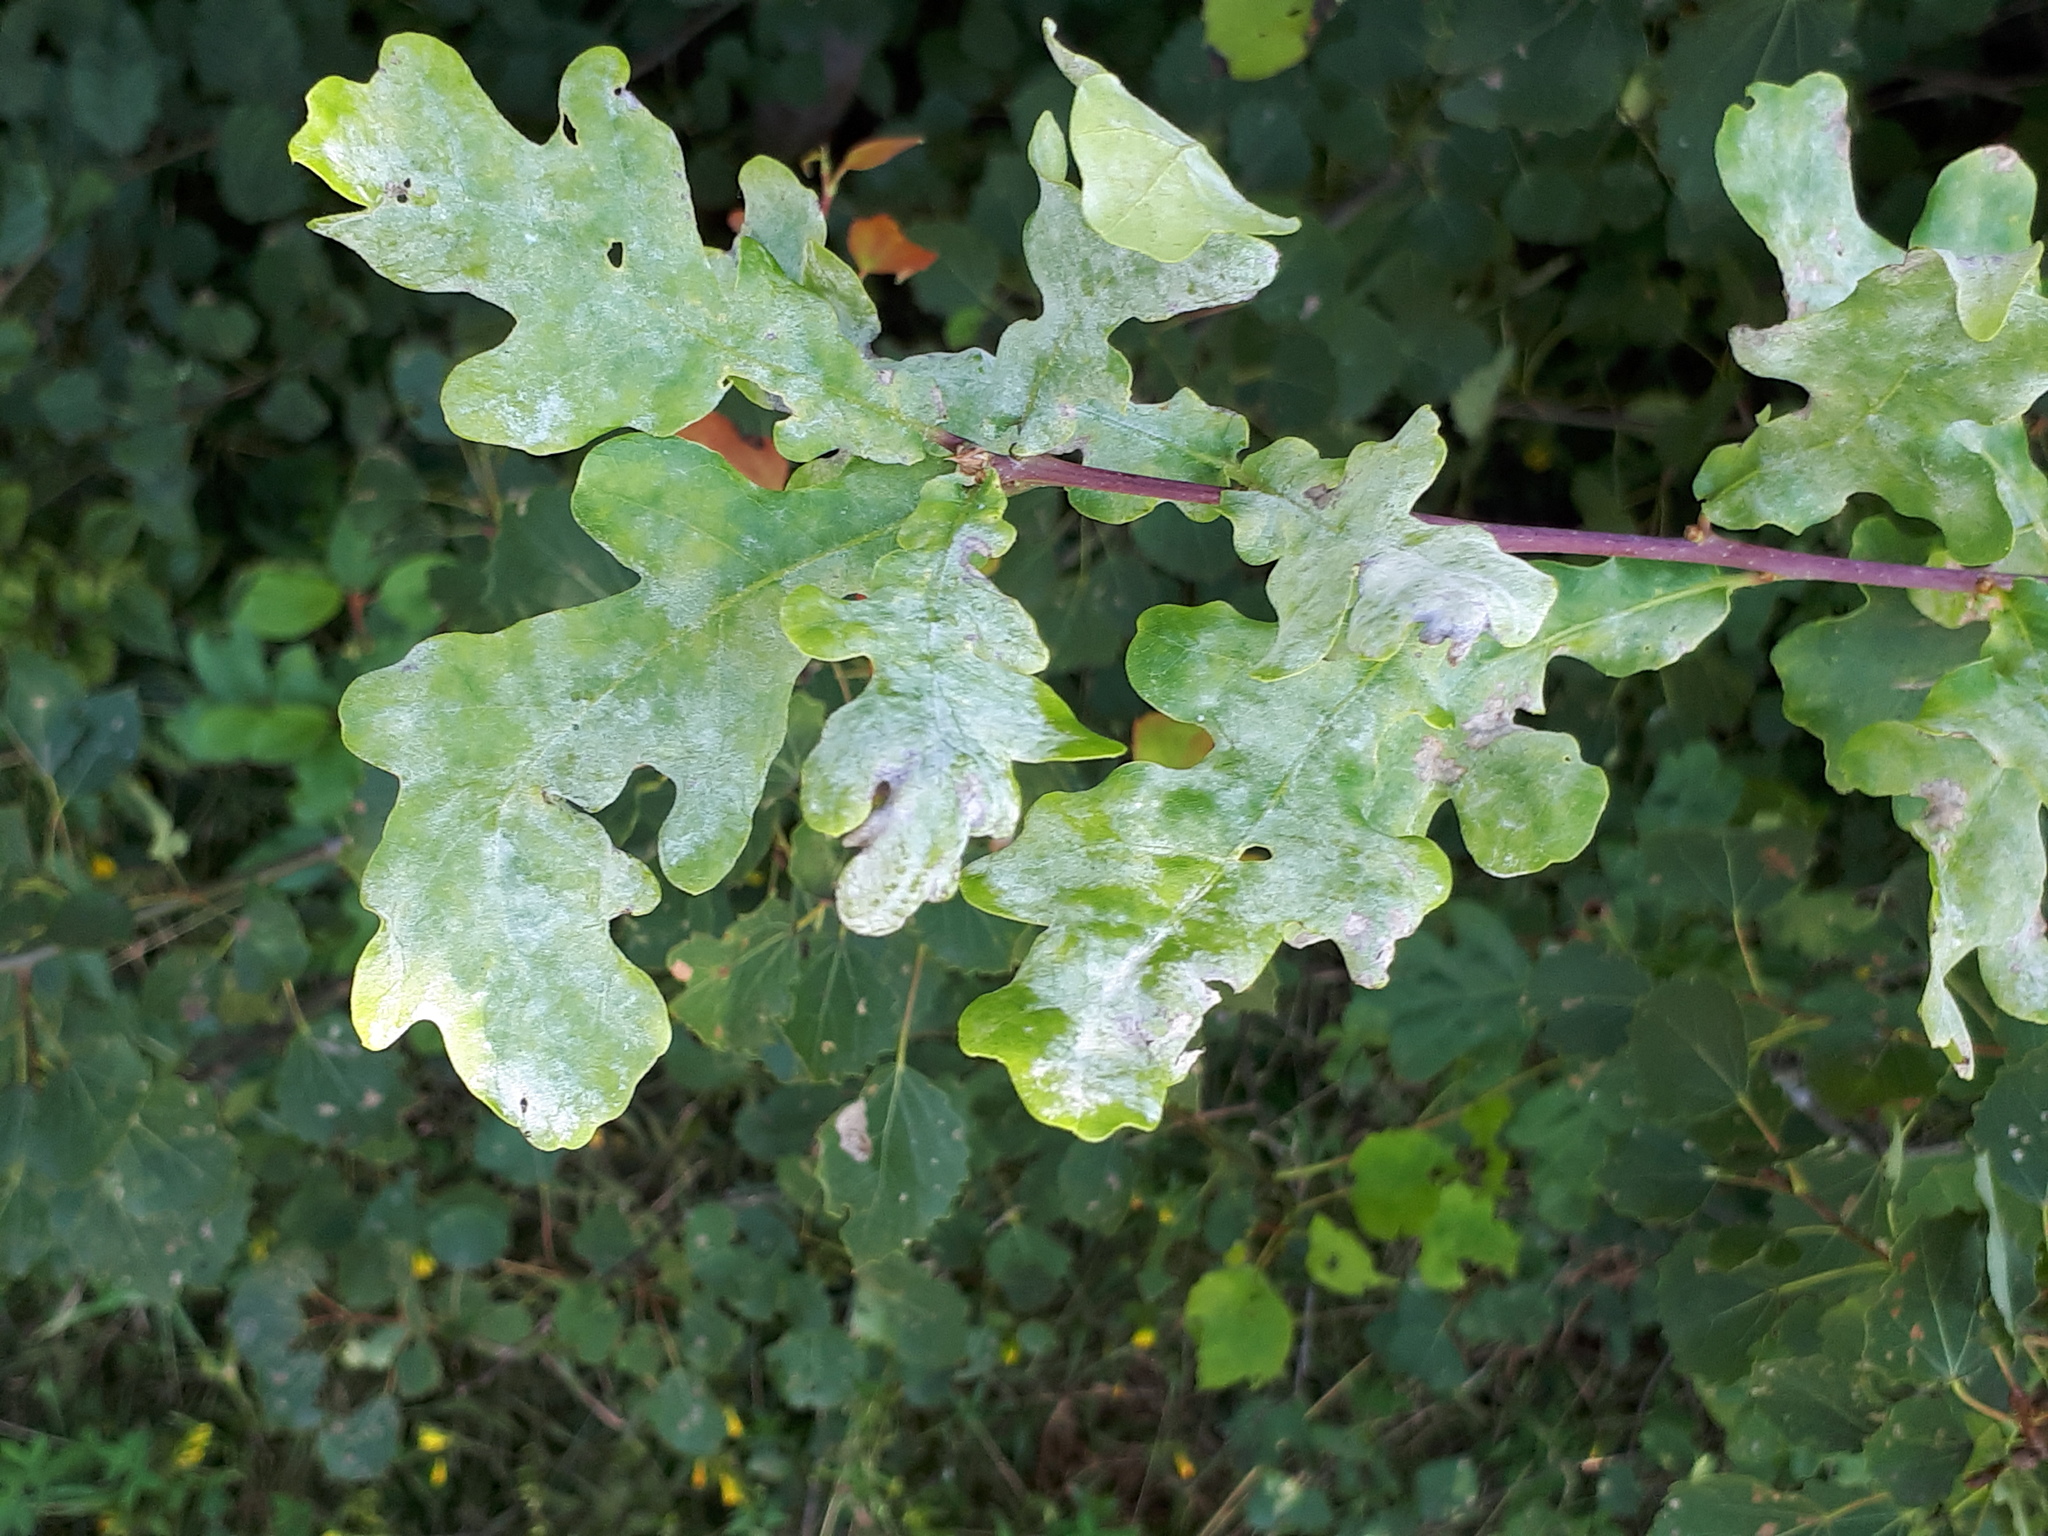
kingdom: Fungi
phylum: Ascomycota
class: Leotiomycetes
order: Helotiales
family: Erysiphaceae
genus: Erysiphe
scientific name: Erysiphe
